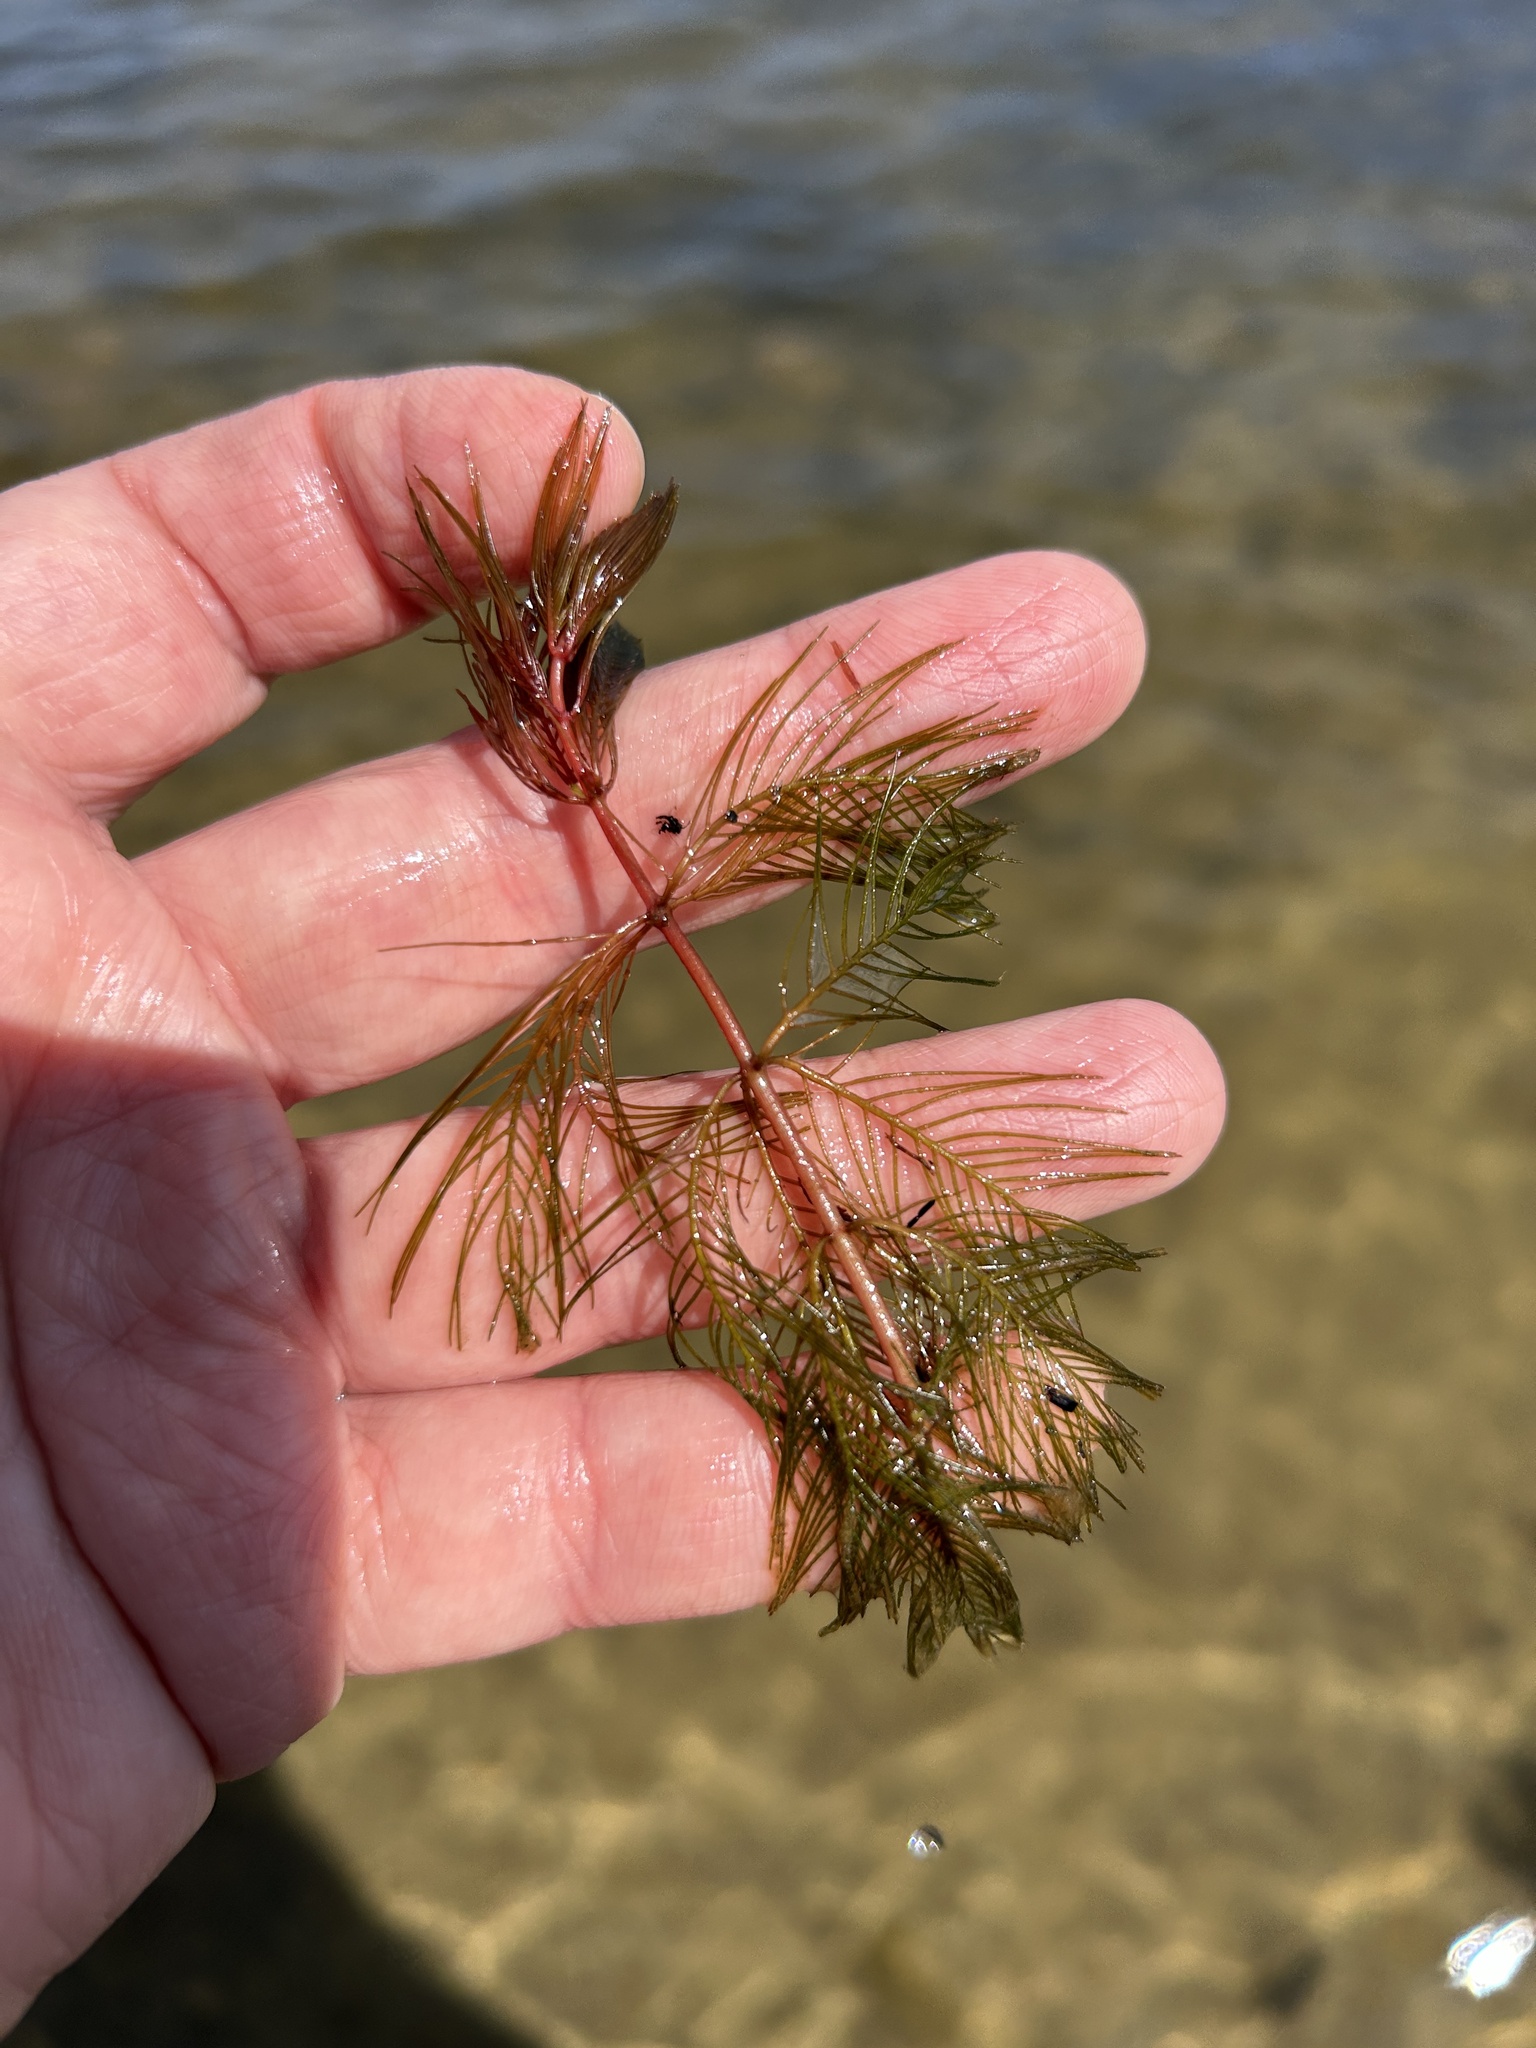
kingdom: Plantae
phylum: Tracheophyta
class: Magnoliopsida
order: Saxifragales
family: Haloragaceae
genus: Myriophyllum
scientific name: Myriophyllum spicatum
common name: Spiked water-milfoil
